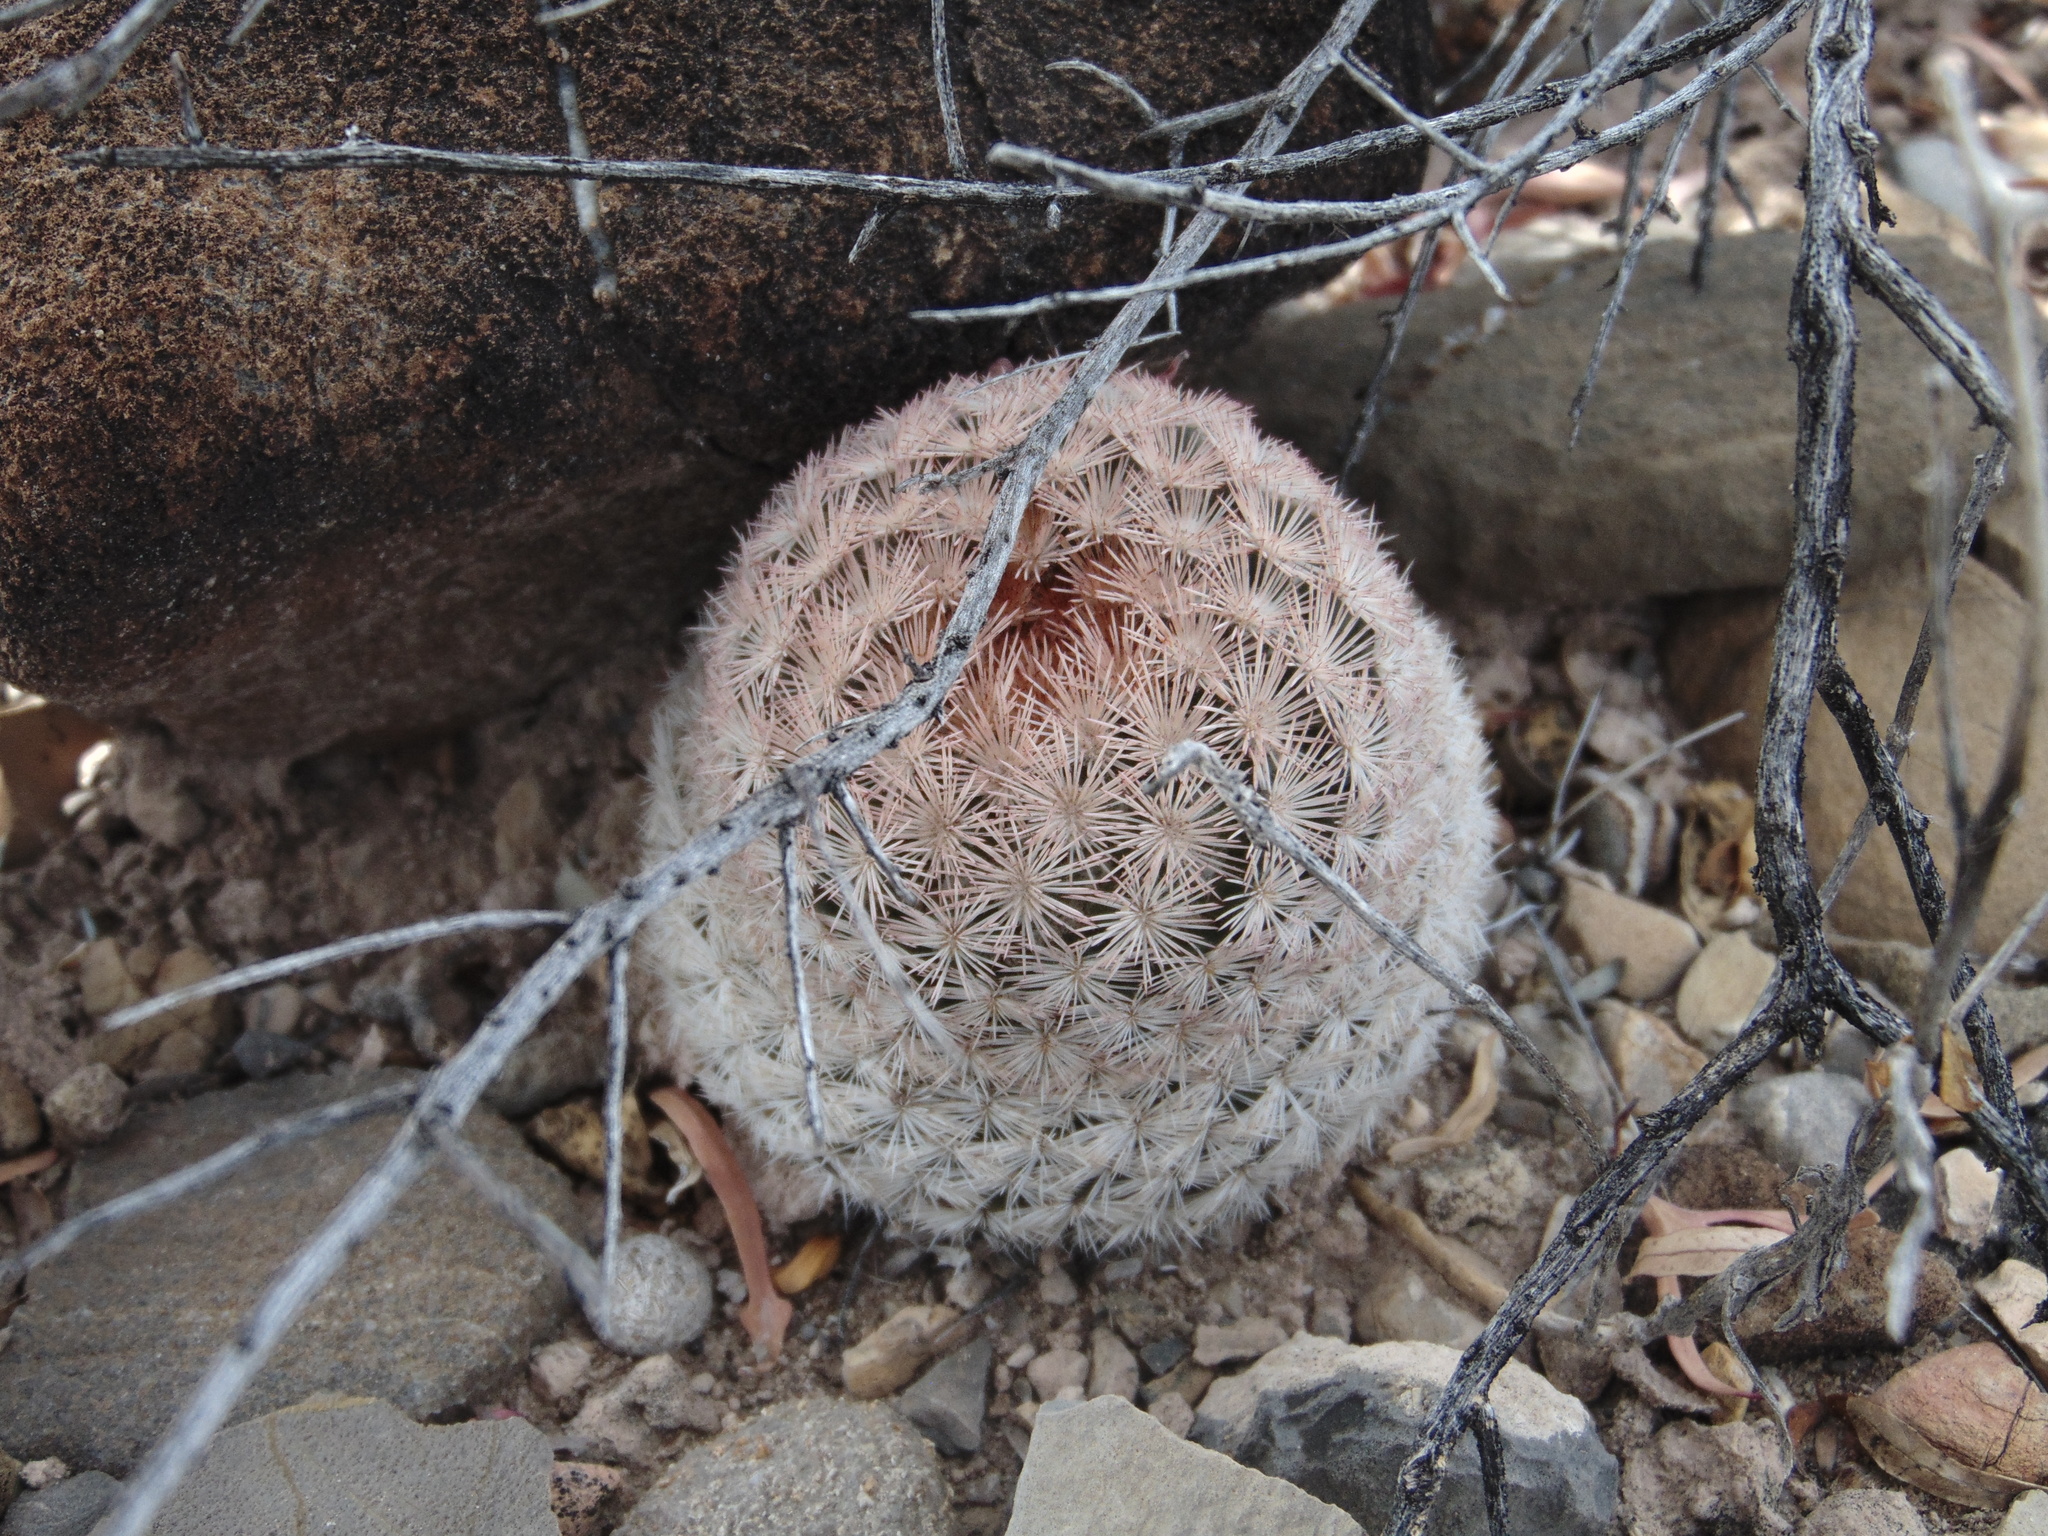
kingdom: Plantae
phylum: Tracheophyta
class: Magnoliopsida
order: Caryophyllales
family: Cactaceae
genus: Mammillaria
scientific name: Mammillaria lasiacantha
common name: Lace-spine nipple cactus
